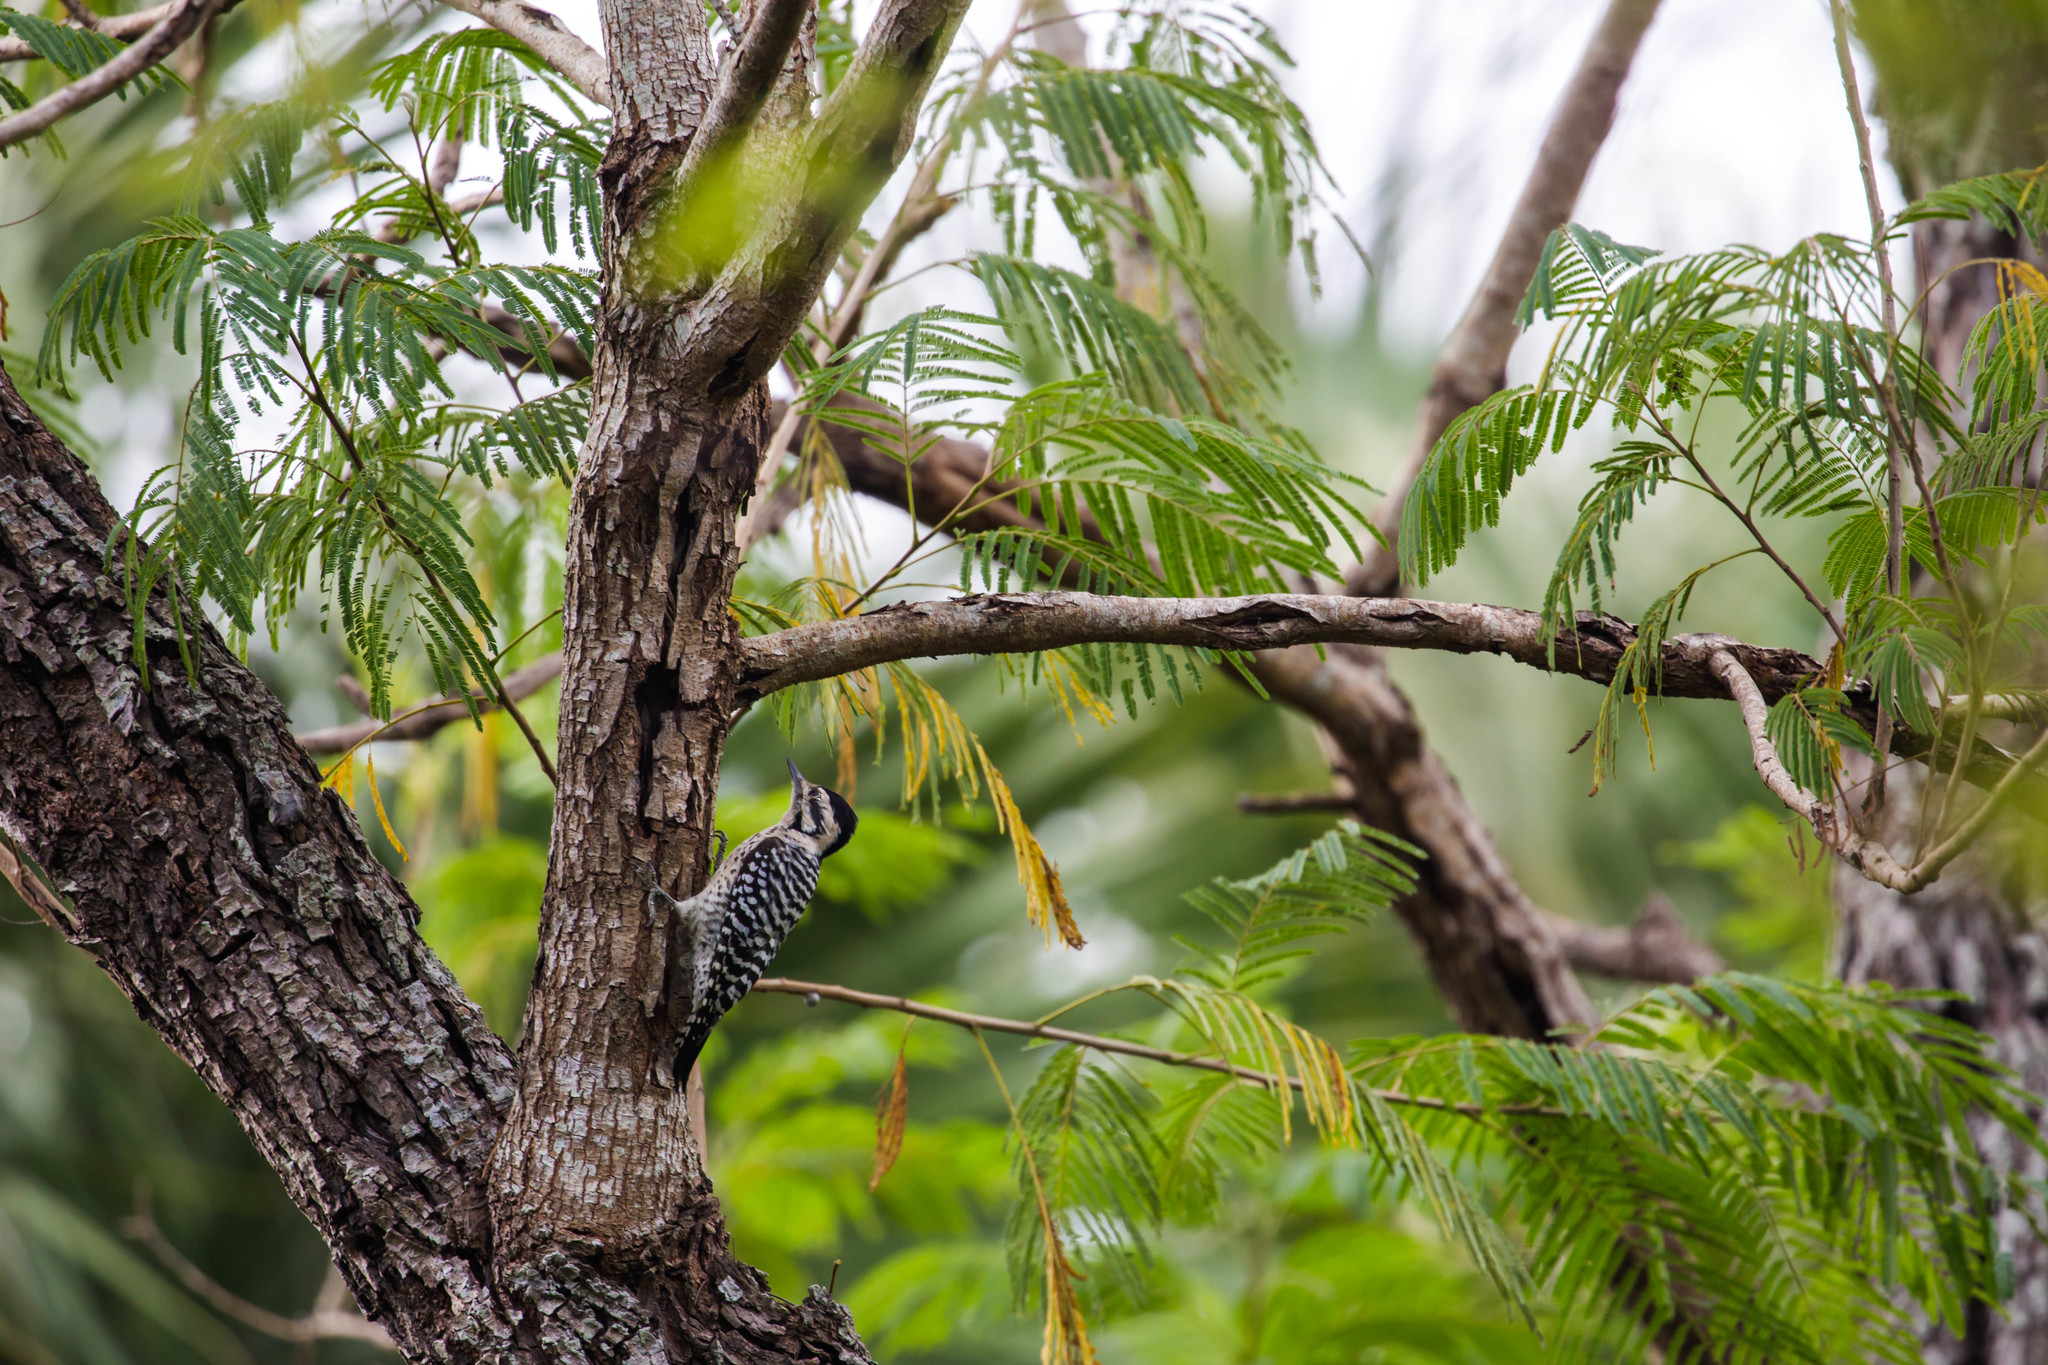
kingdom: Animalia
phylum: Chordata
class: Aves
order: Piciformes
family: Picidae
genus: Dryobates
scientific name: Dryobates scalaris
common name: Ladder-backed woodpecker
